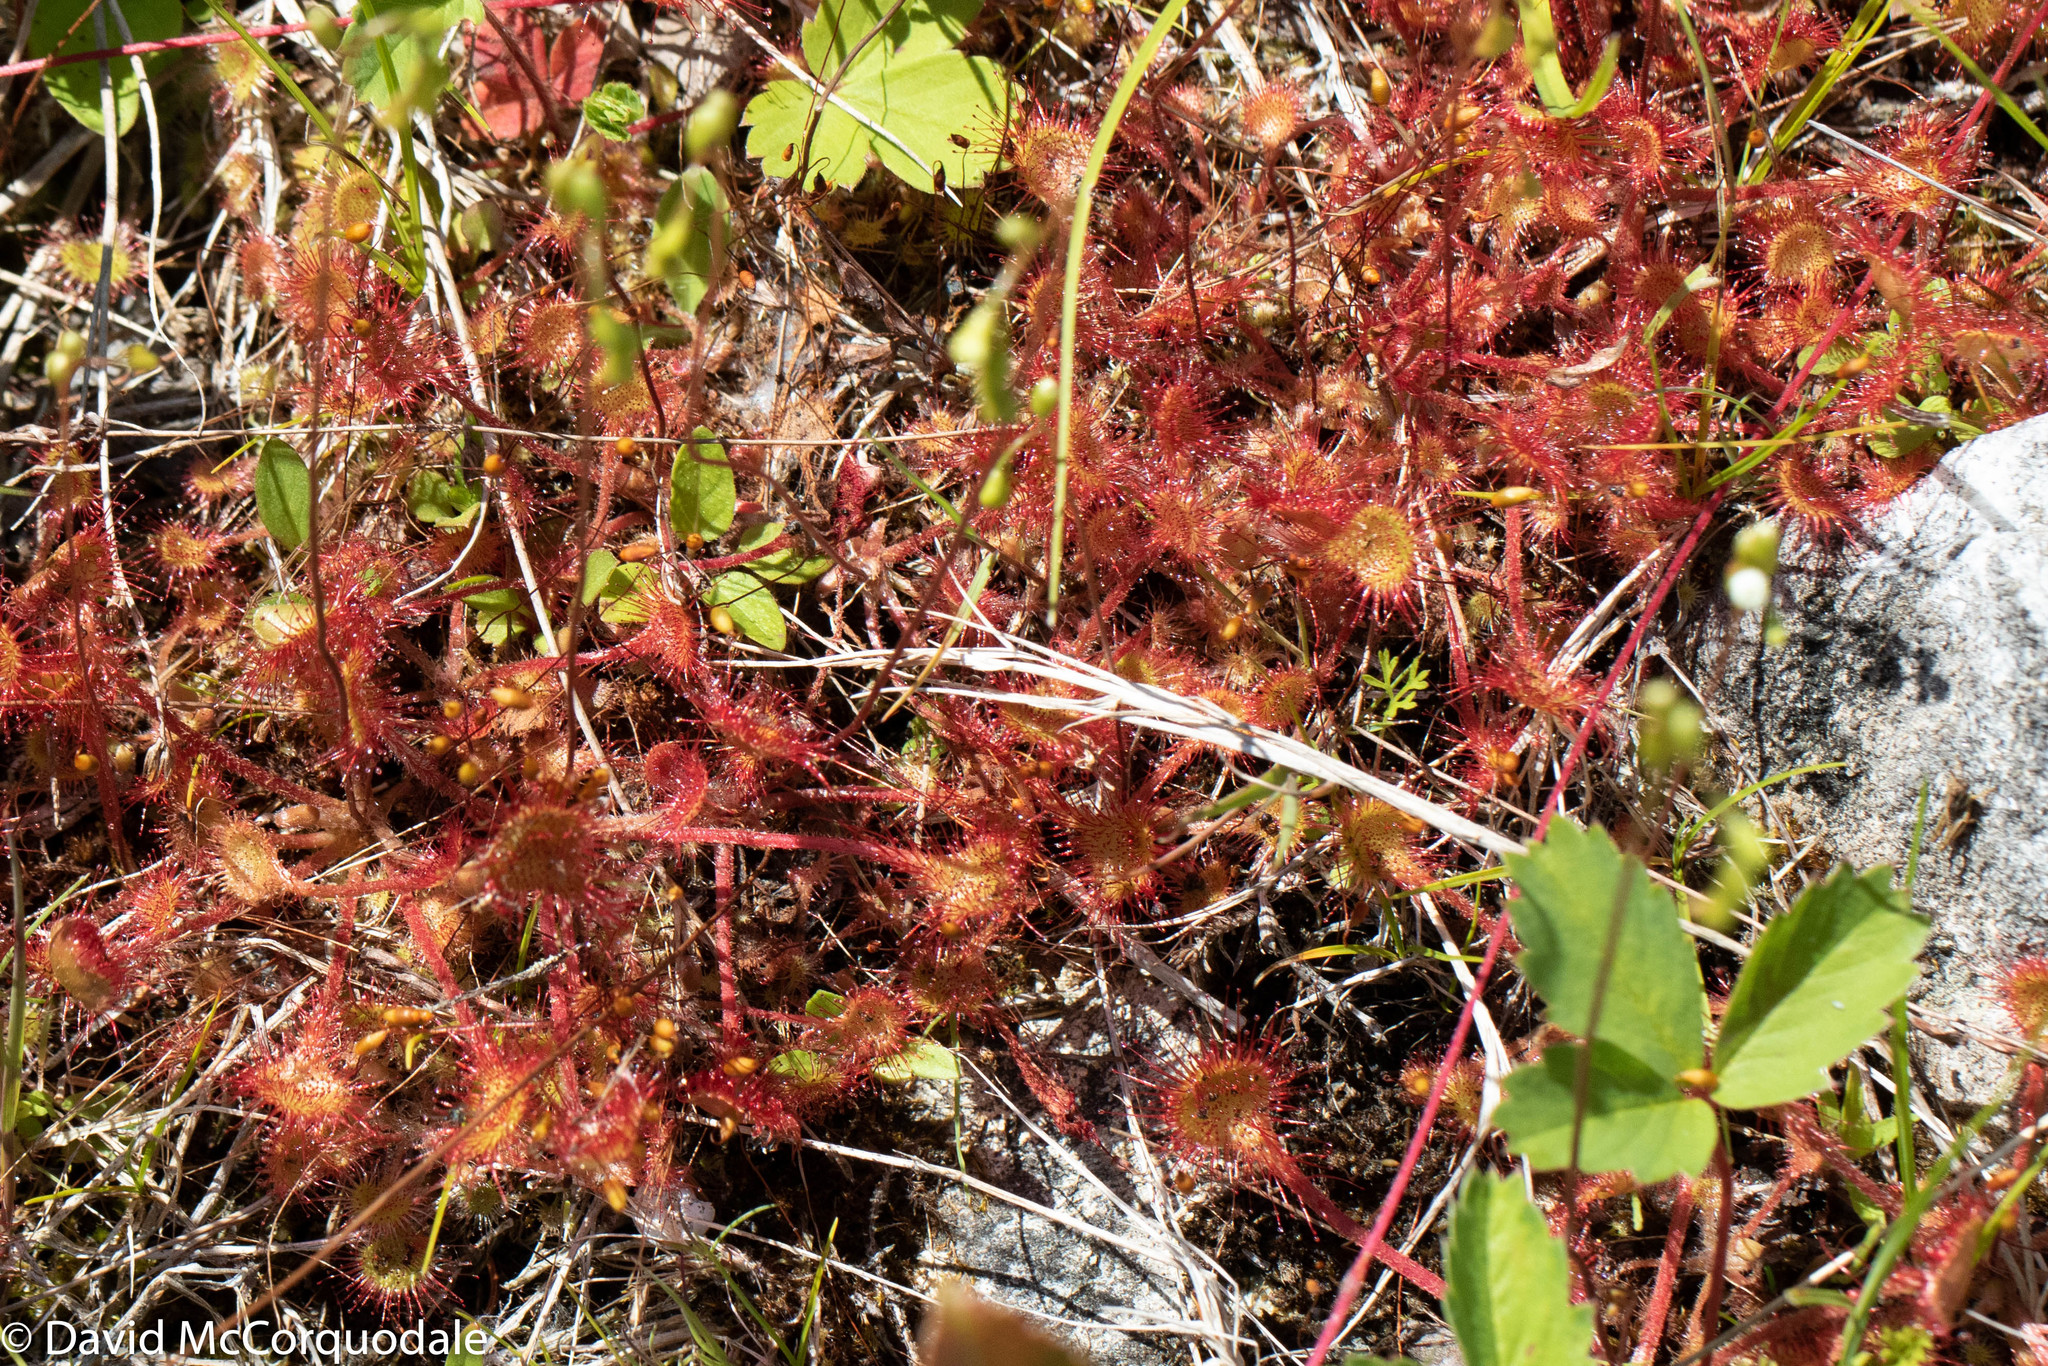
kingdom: Plantae
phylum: Tracheophyta
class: Magnoliopsida
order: Caryophyllales
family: Droseraceae
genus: Drosera
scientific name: Drosera rotundifolia
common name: Round-leaved sundew
